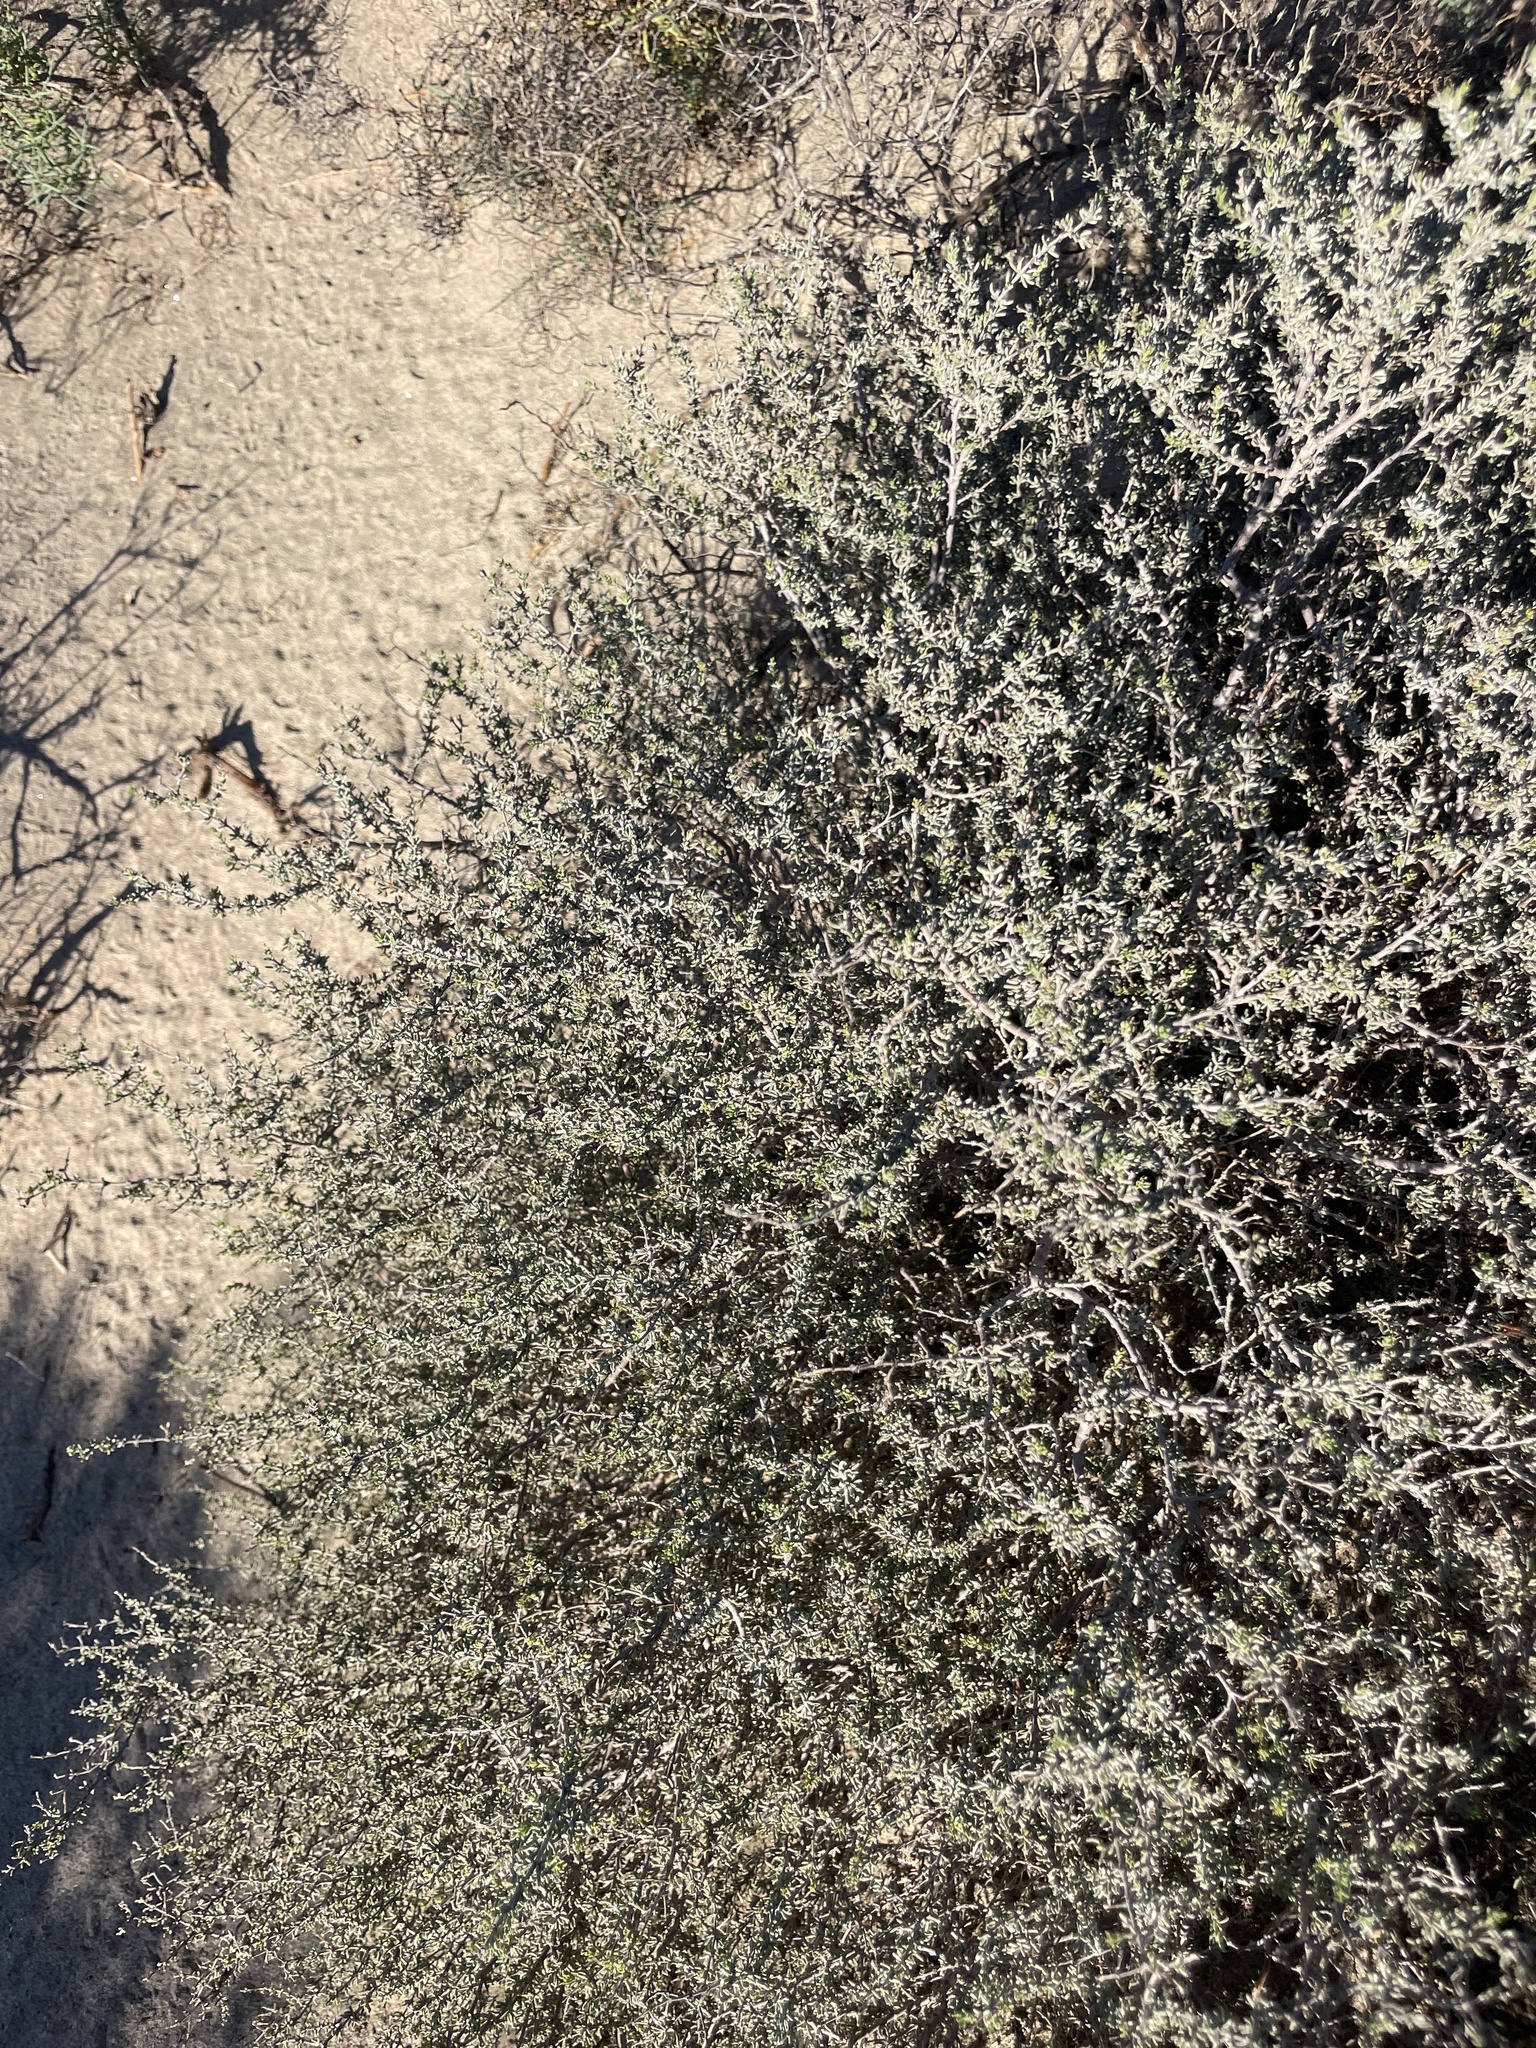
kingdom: Plantae
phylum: Tracheophyta
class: Magnoliopsida
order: Caryophyllales
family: Frankeniaceae
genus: Frankenia
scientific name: Frankenia palmeri
